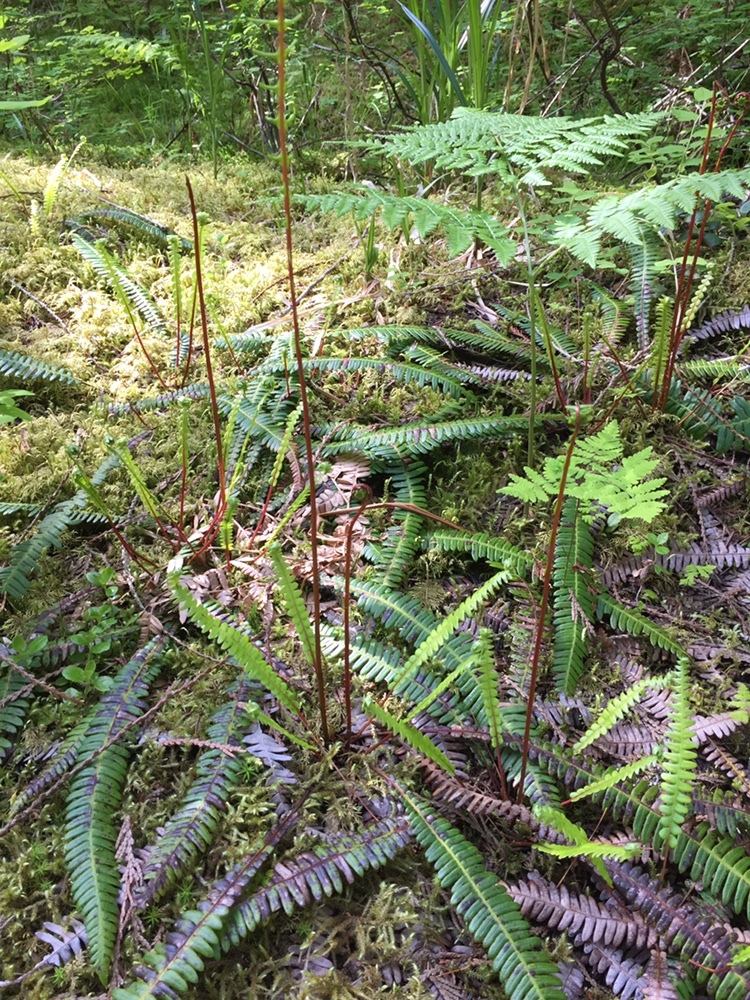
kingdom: Plantae
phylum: Tracheophyta
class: Polypodiopsida
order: Polypodiales
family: Blechnaceae
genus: Struthiopteris
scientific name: Struthiopteris spicant
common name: Deer fern
